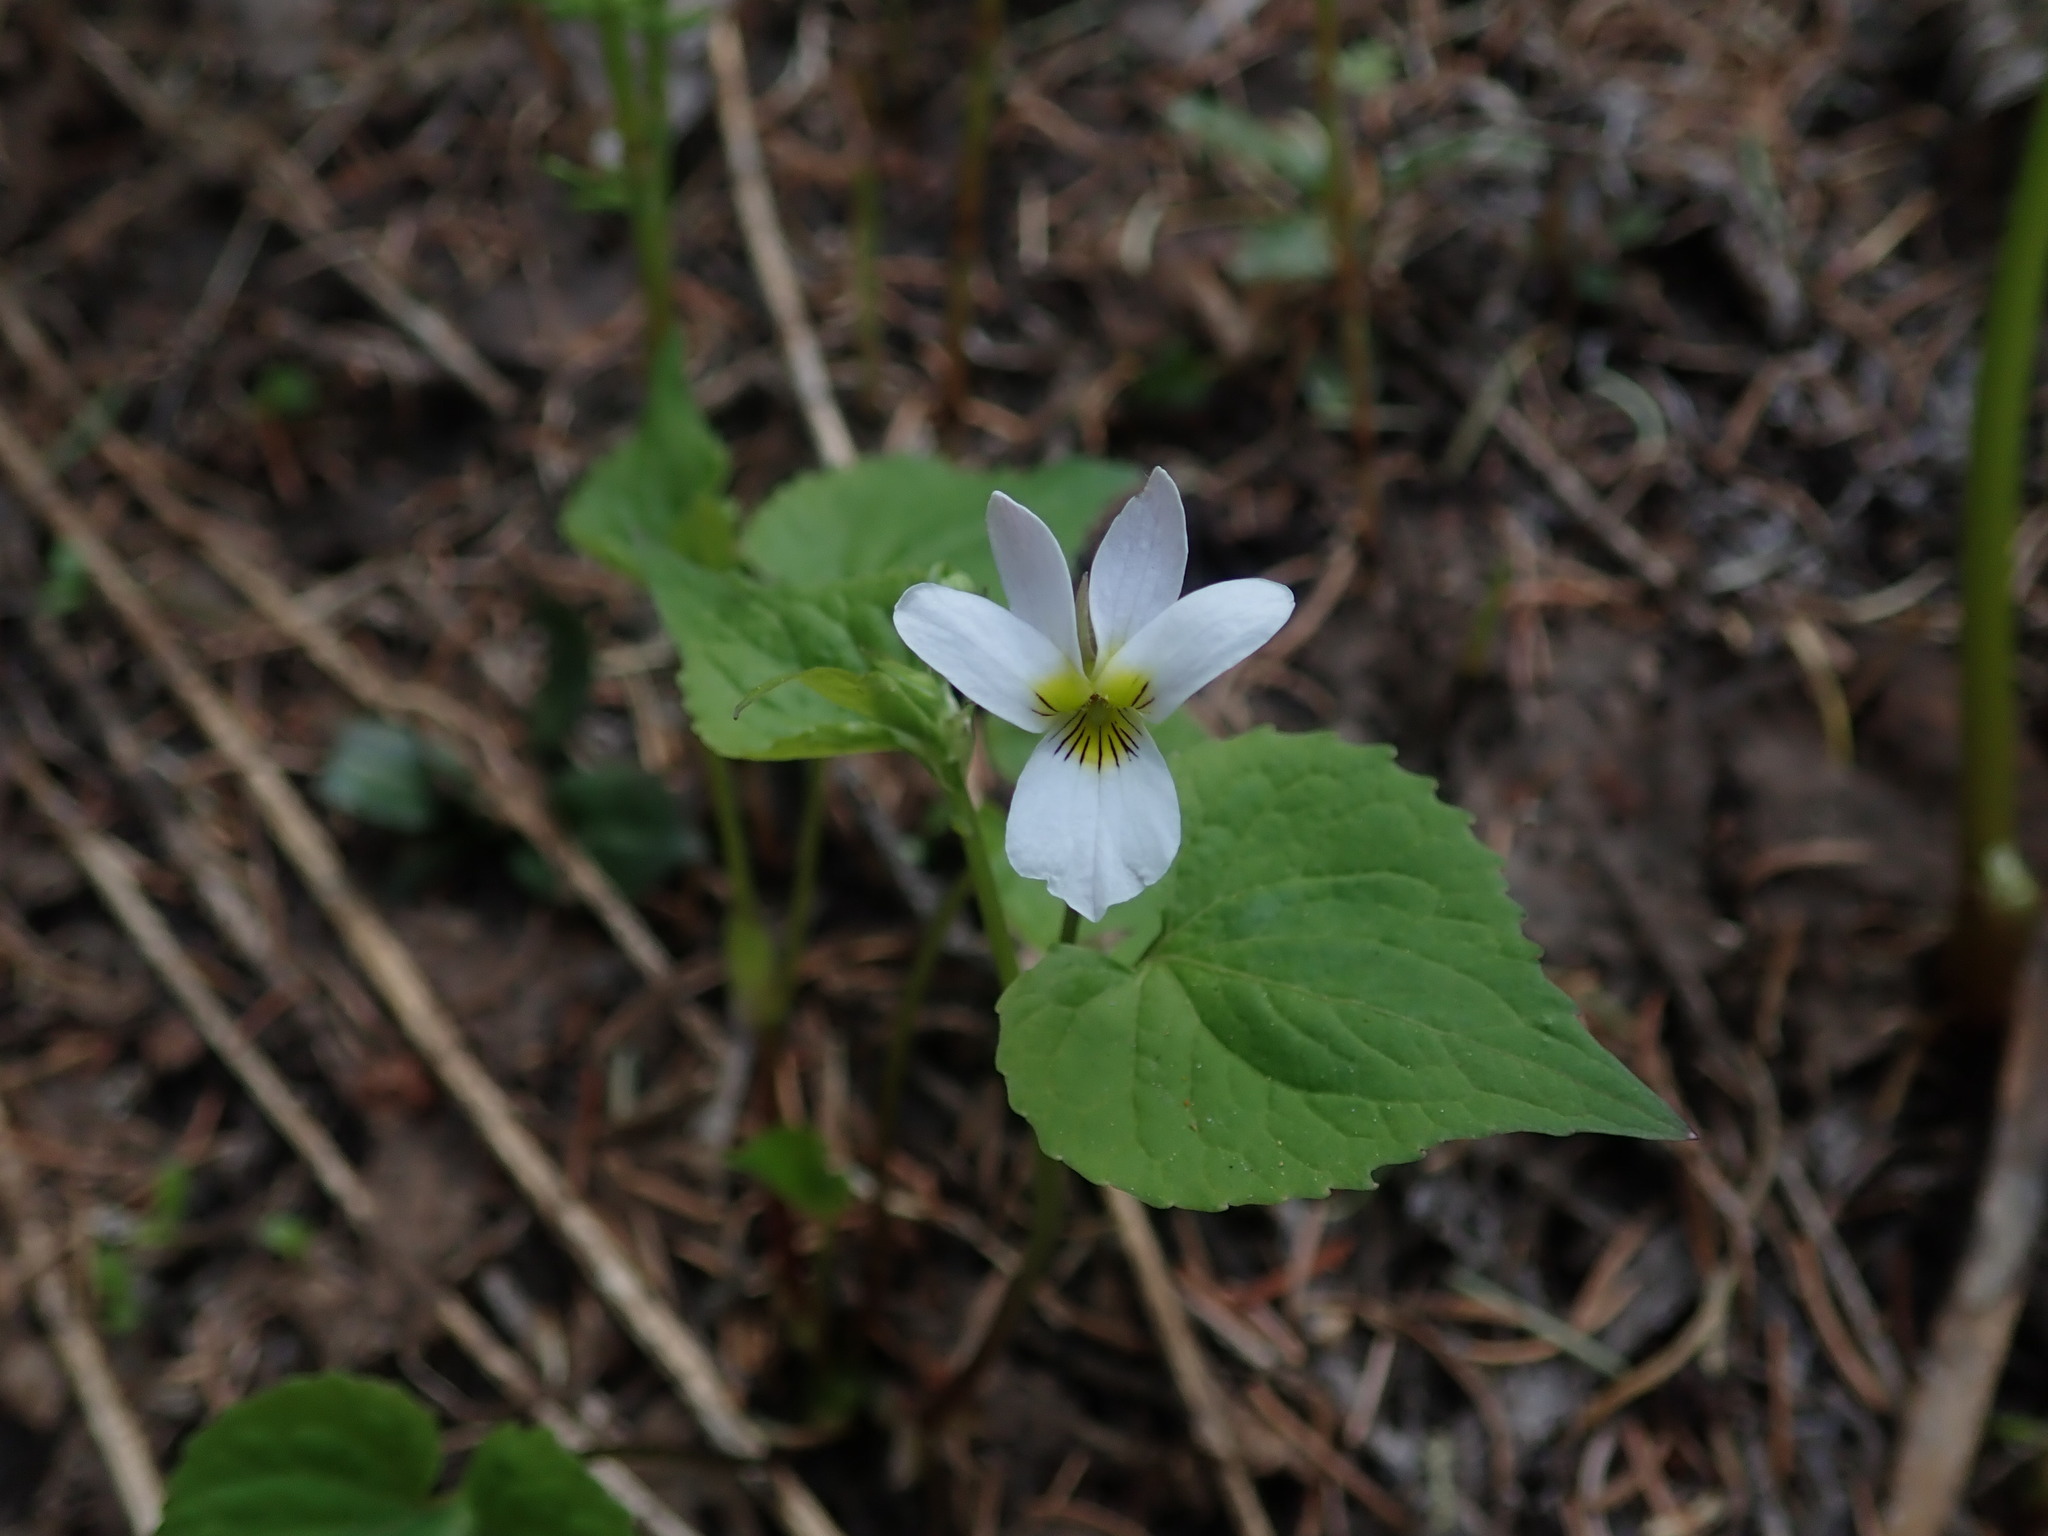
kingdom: Plantae
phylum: Tracheophyta
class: Magnoliopsida
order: Malpighiales
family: Violaceae
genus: Viola
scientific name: Viola scopulorum
